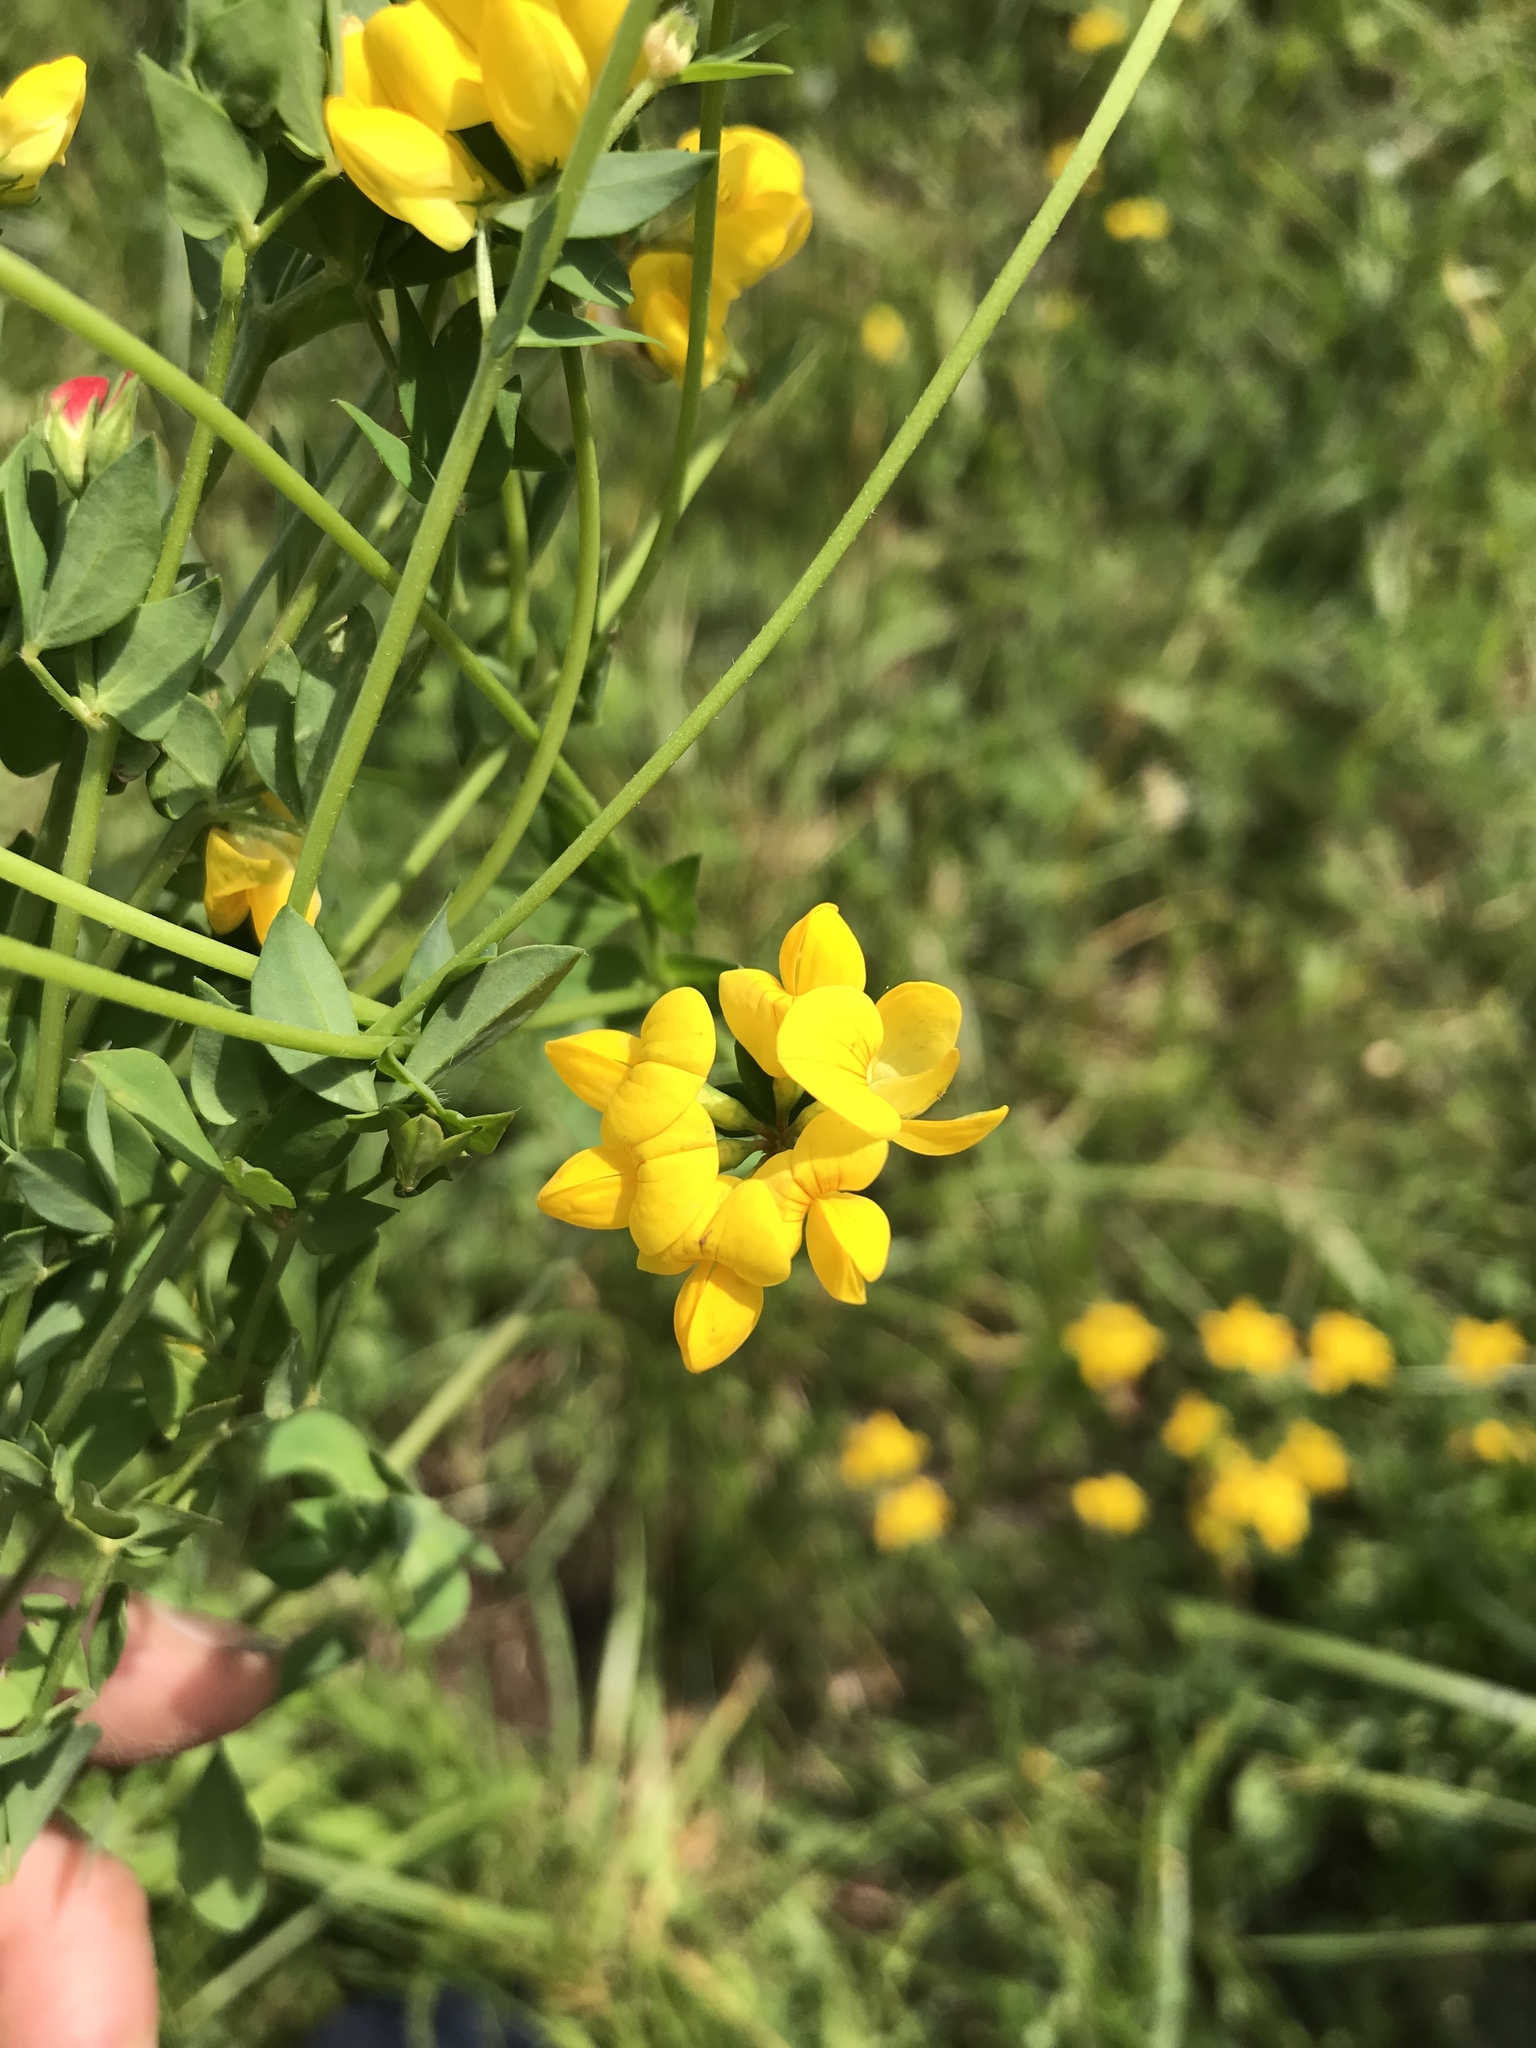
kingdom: Plantae
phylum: Tracheophyta
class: Magnoliopsida
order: Fabales
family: Fabaceae
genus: Lotus
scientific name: Lotus corniculatus
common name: Common bird's-foot-trefoil
